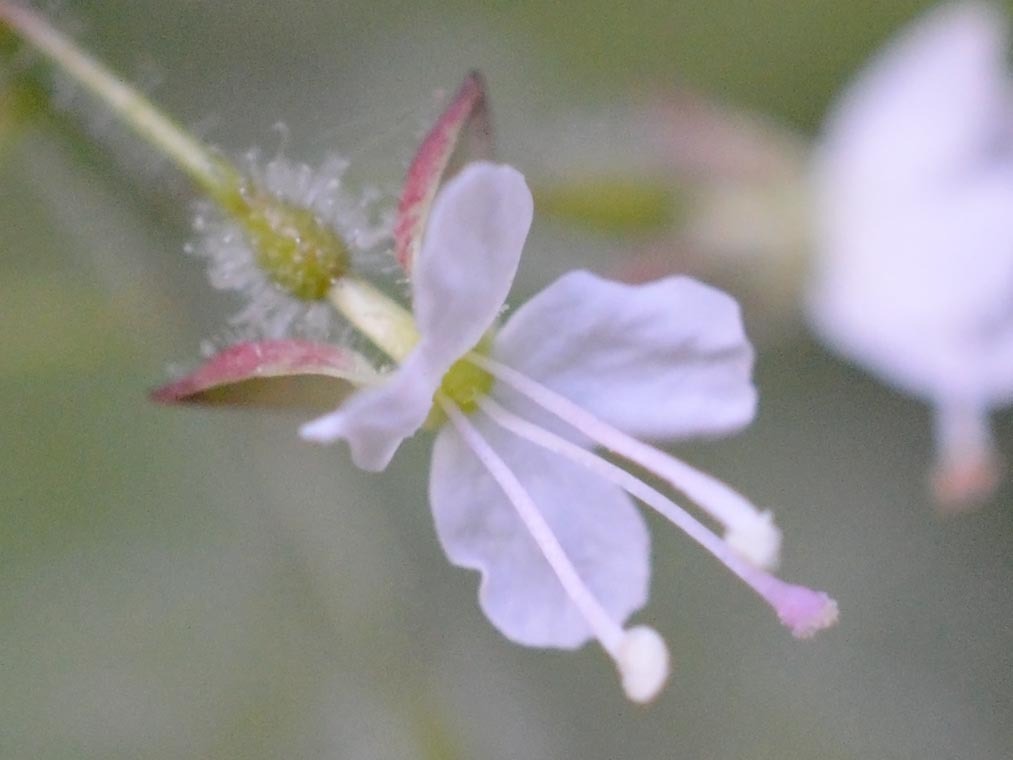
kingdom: Plantae
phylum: Tracheophyta
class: Magnoliopsida
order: Myrtales
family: Onagraceae
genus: Circaea
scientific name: Circaea lutetiana
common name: Enchanter's-nightshade
